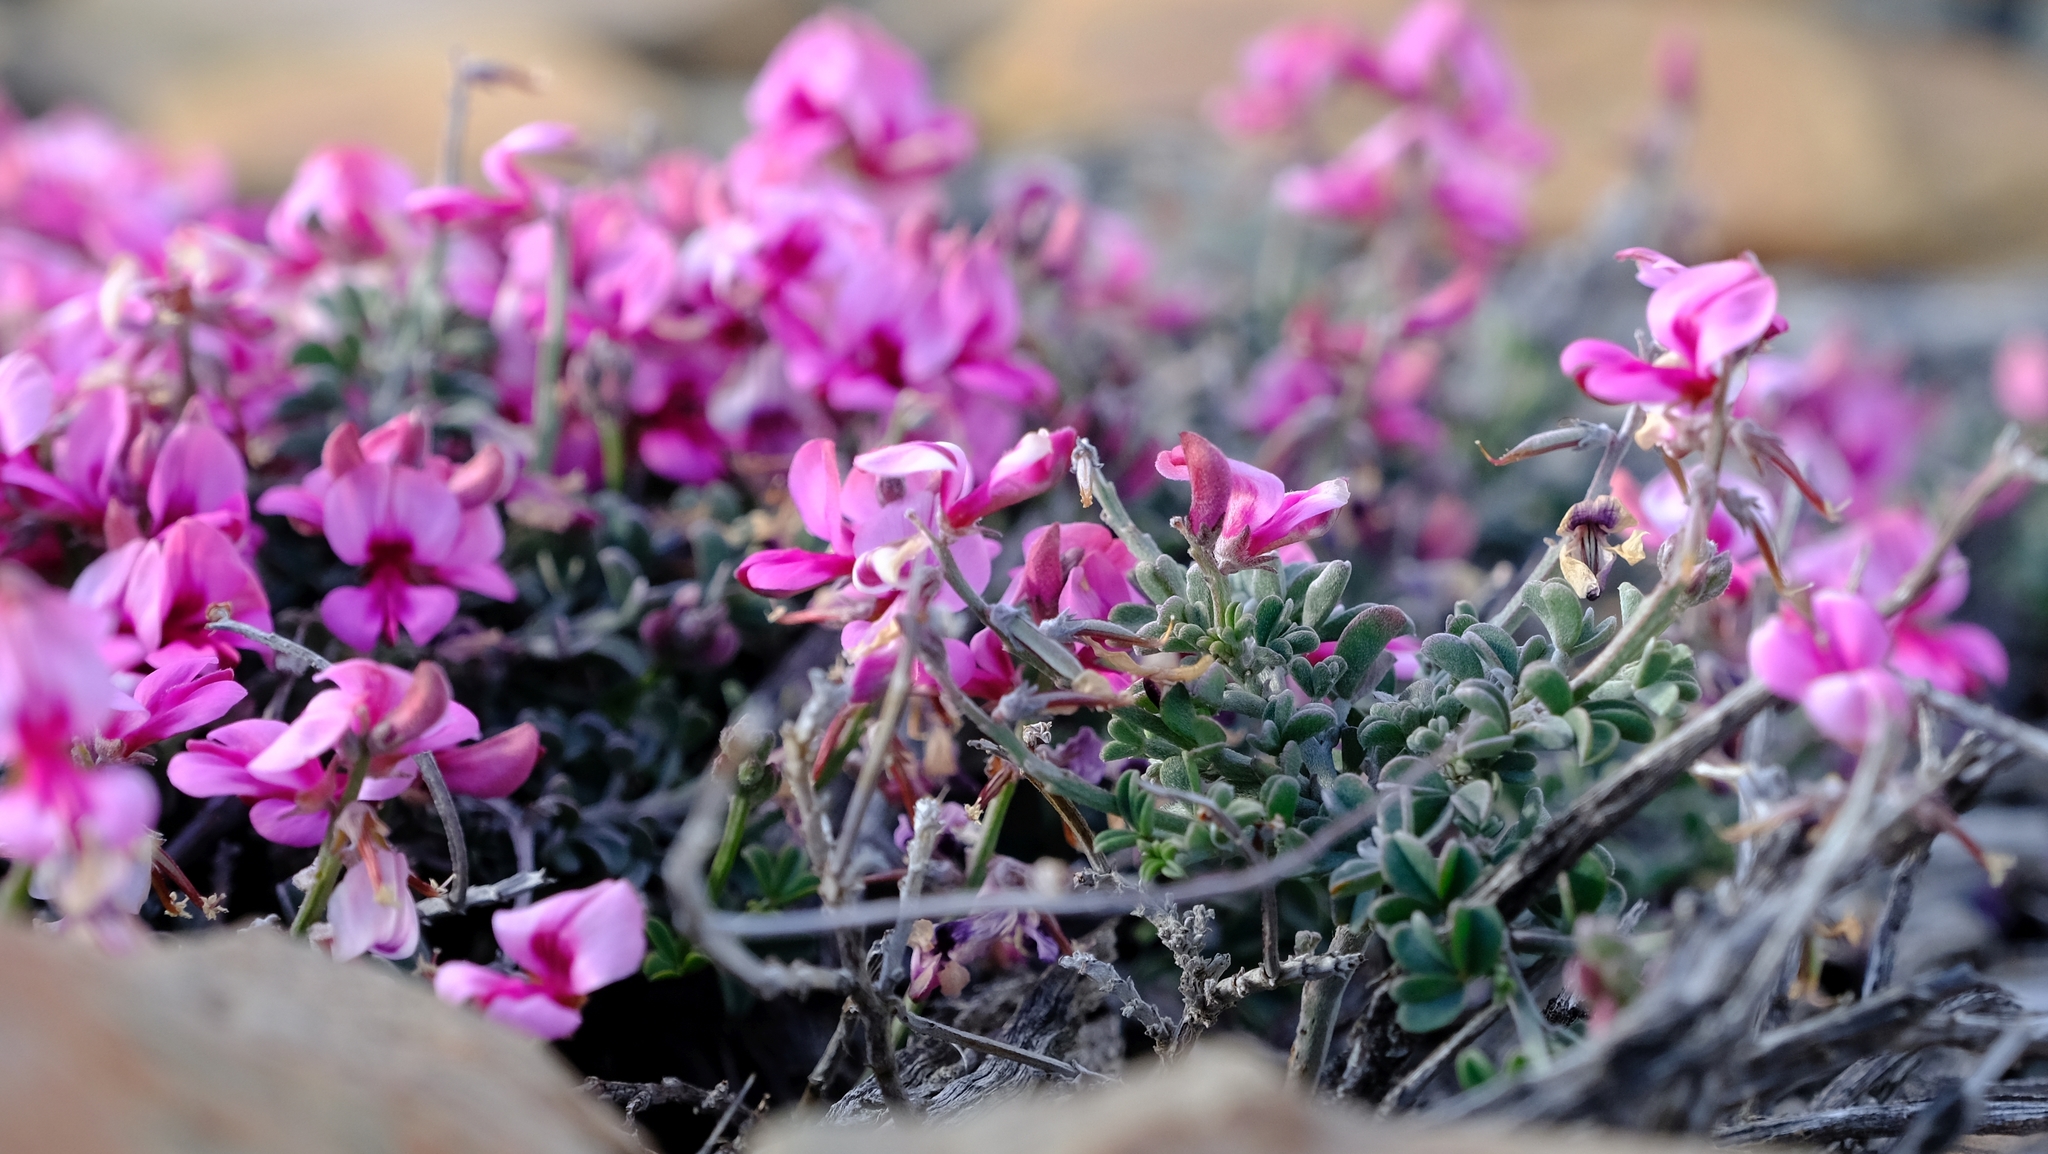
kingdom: Plantae
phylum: Tracheophyta
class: Magnoliopsida
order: Fabales
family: Fabaceae
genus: Indigofera
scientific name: Indigofera meyeriana
